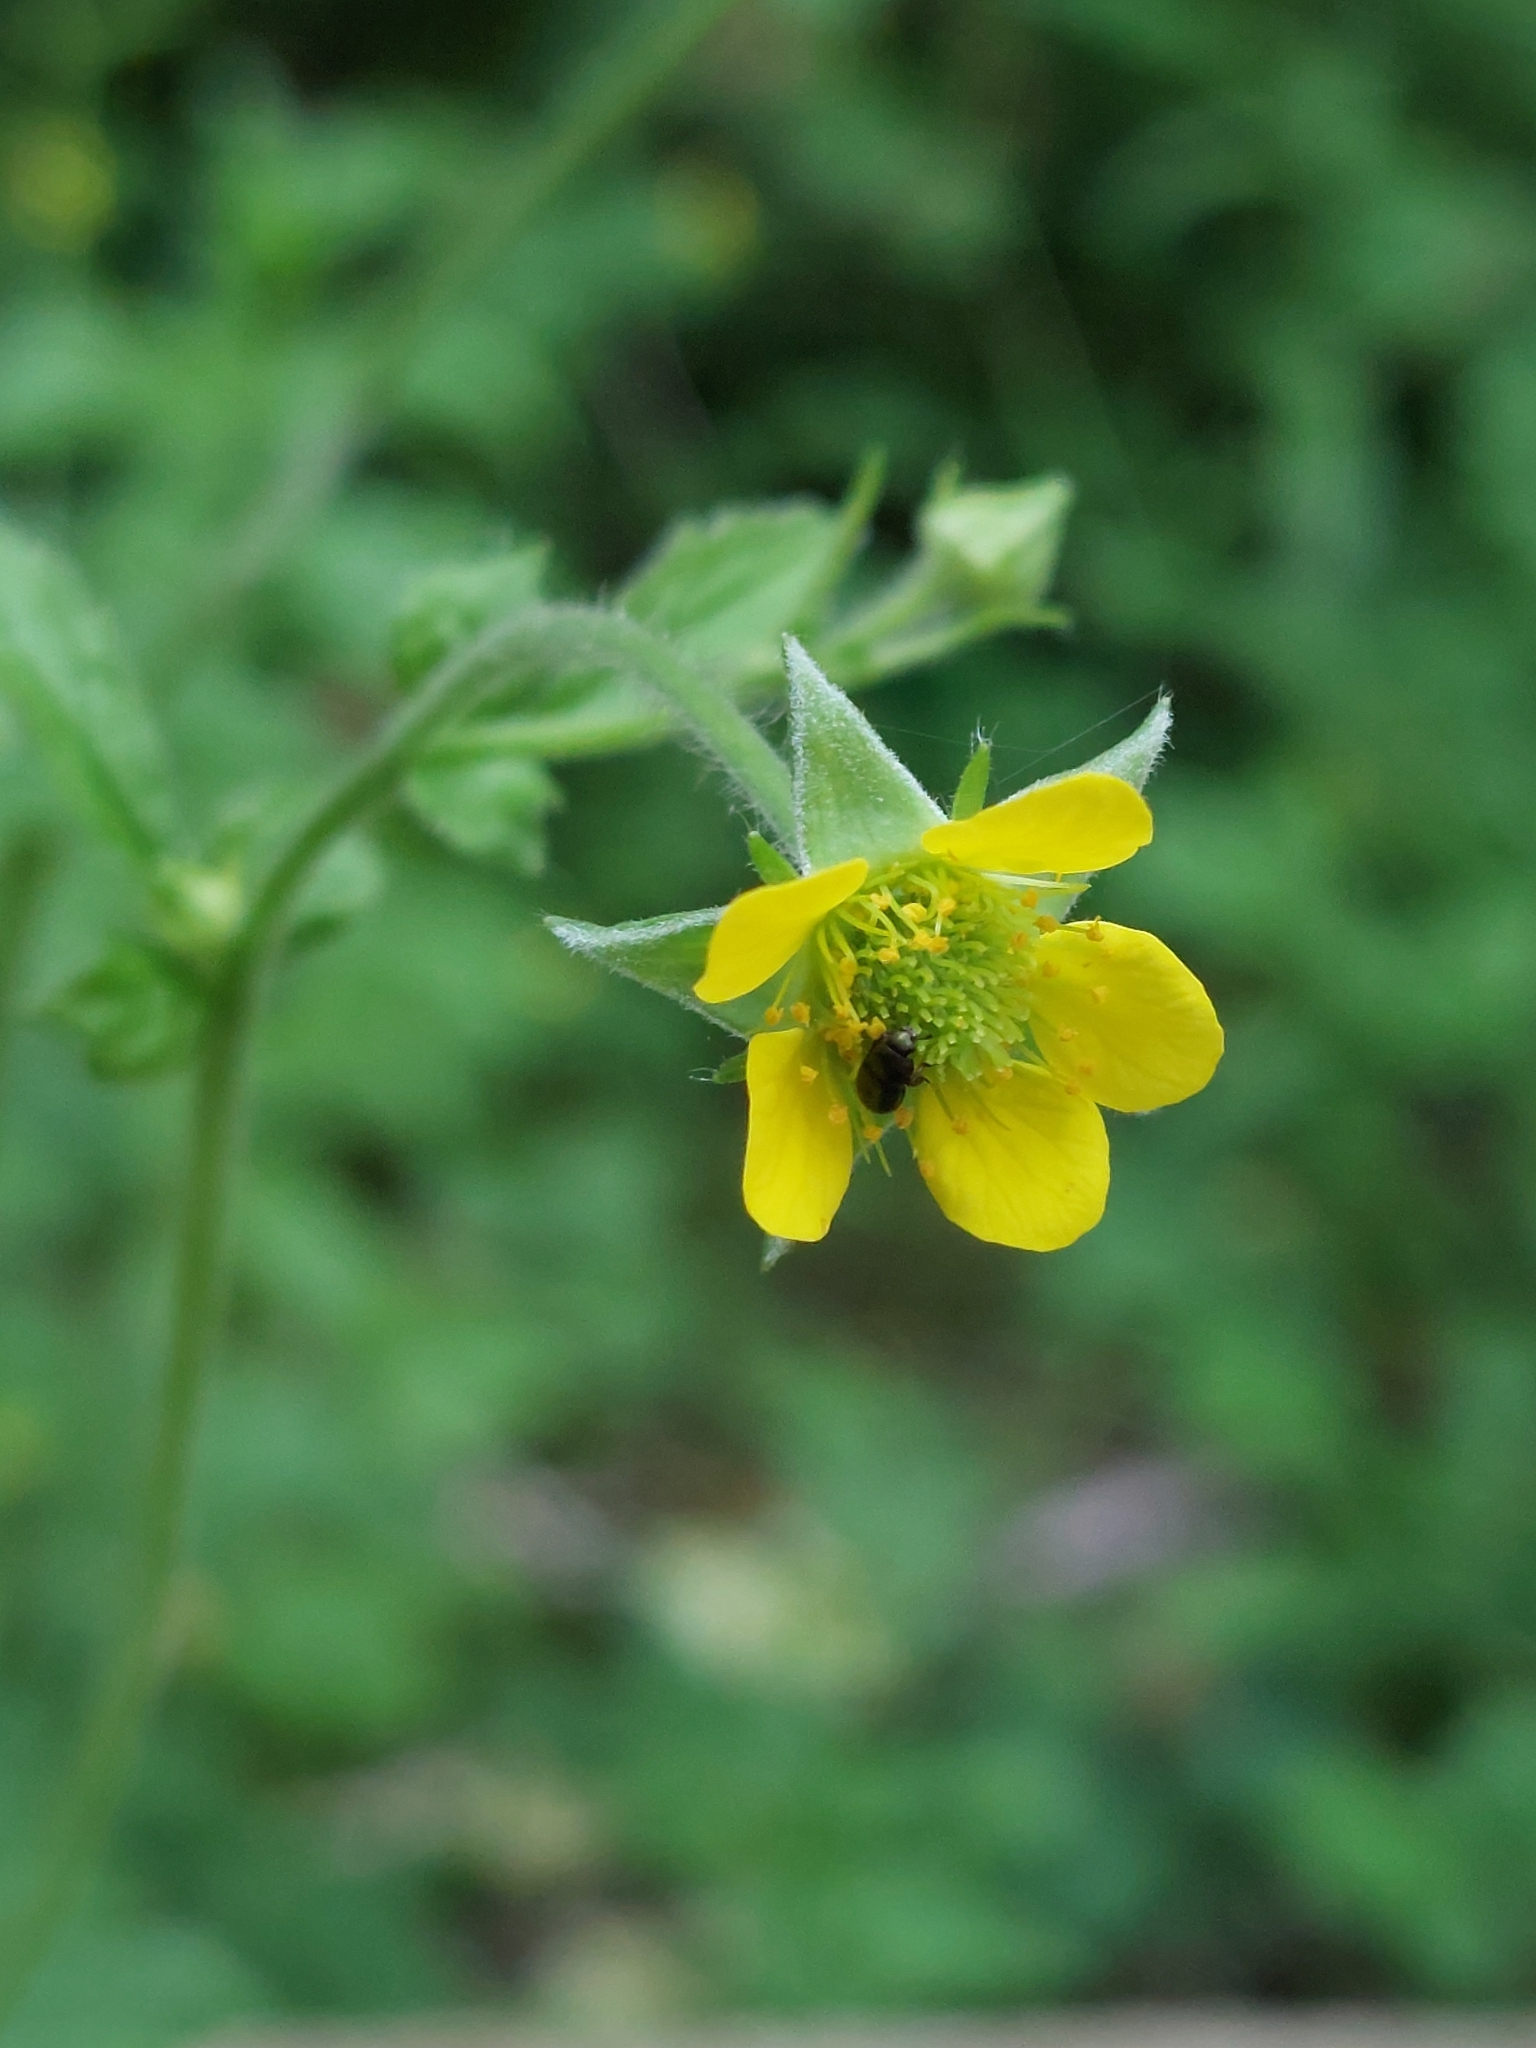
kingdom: Plantae
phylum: Tracheophyta
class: Magnoliopsida
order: Rosales
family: Rosaceae
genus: Geum
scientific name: Geum urbanum
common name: Wood avens
